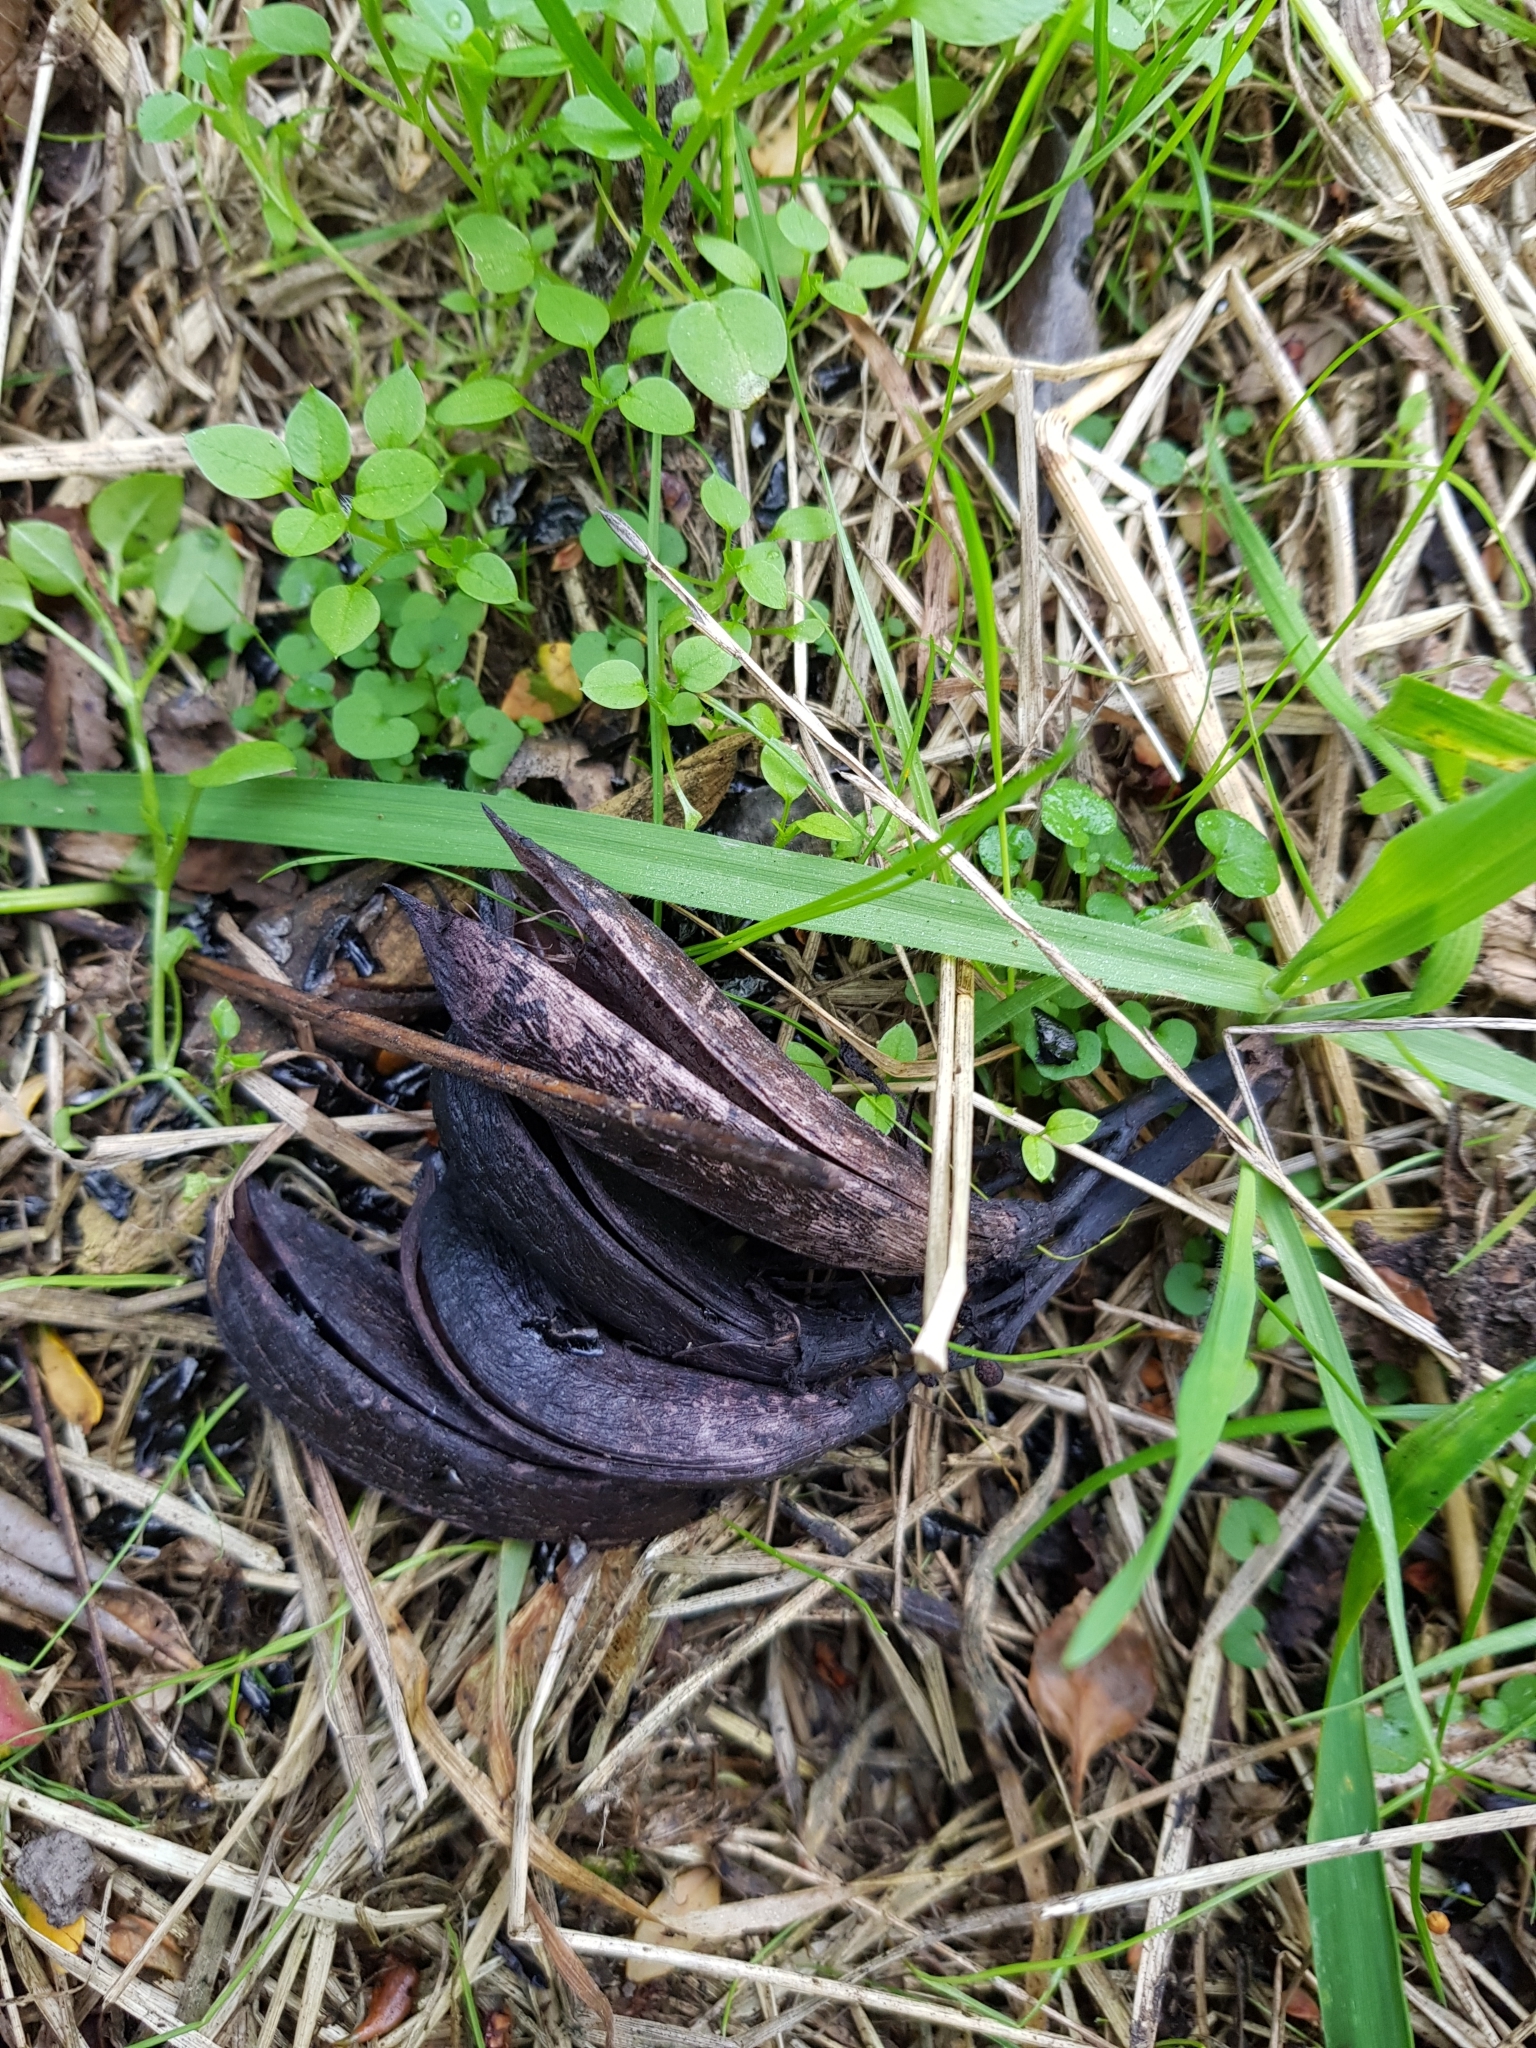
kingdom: Plantae
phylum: Tracheophyta
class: Liliopsida
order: Asparagales
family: Asphodelaceae
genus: Phormium
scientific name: Phormium tenax
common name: New zealand flax
